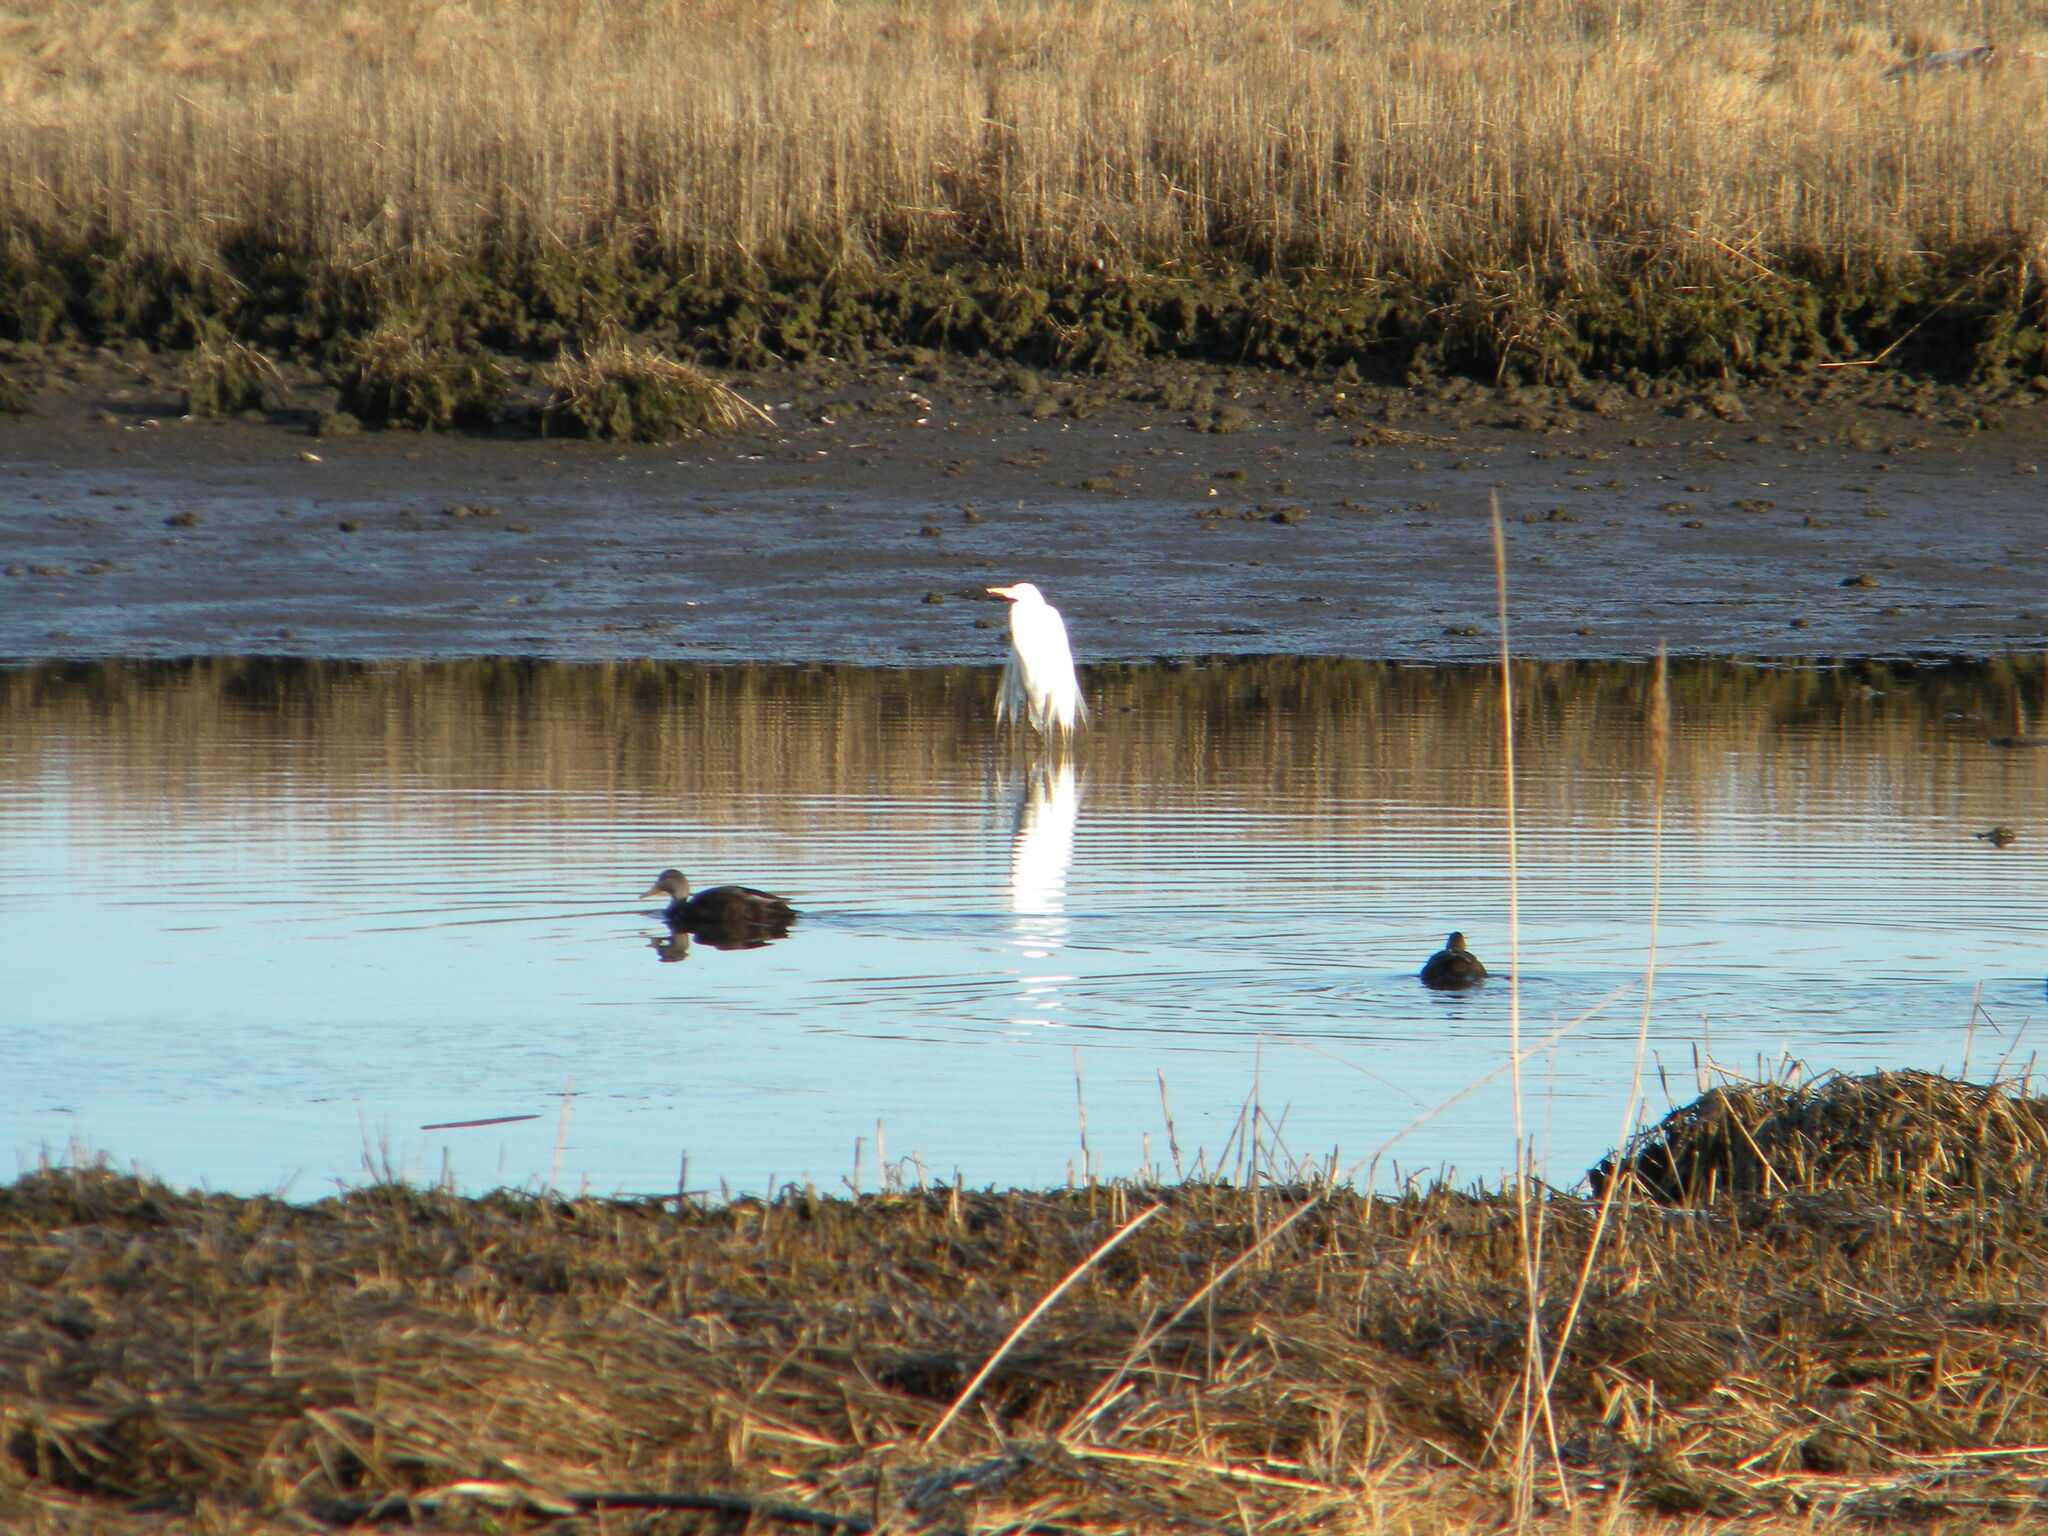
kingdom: Animalia
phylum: Chordata
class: Aves
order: Pelecaniformes
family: Ardeidae
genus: Ardea
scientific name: Ardea alba
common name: Great egret
